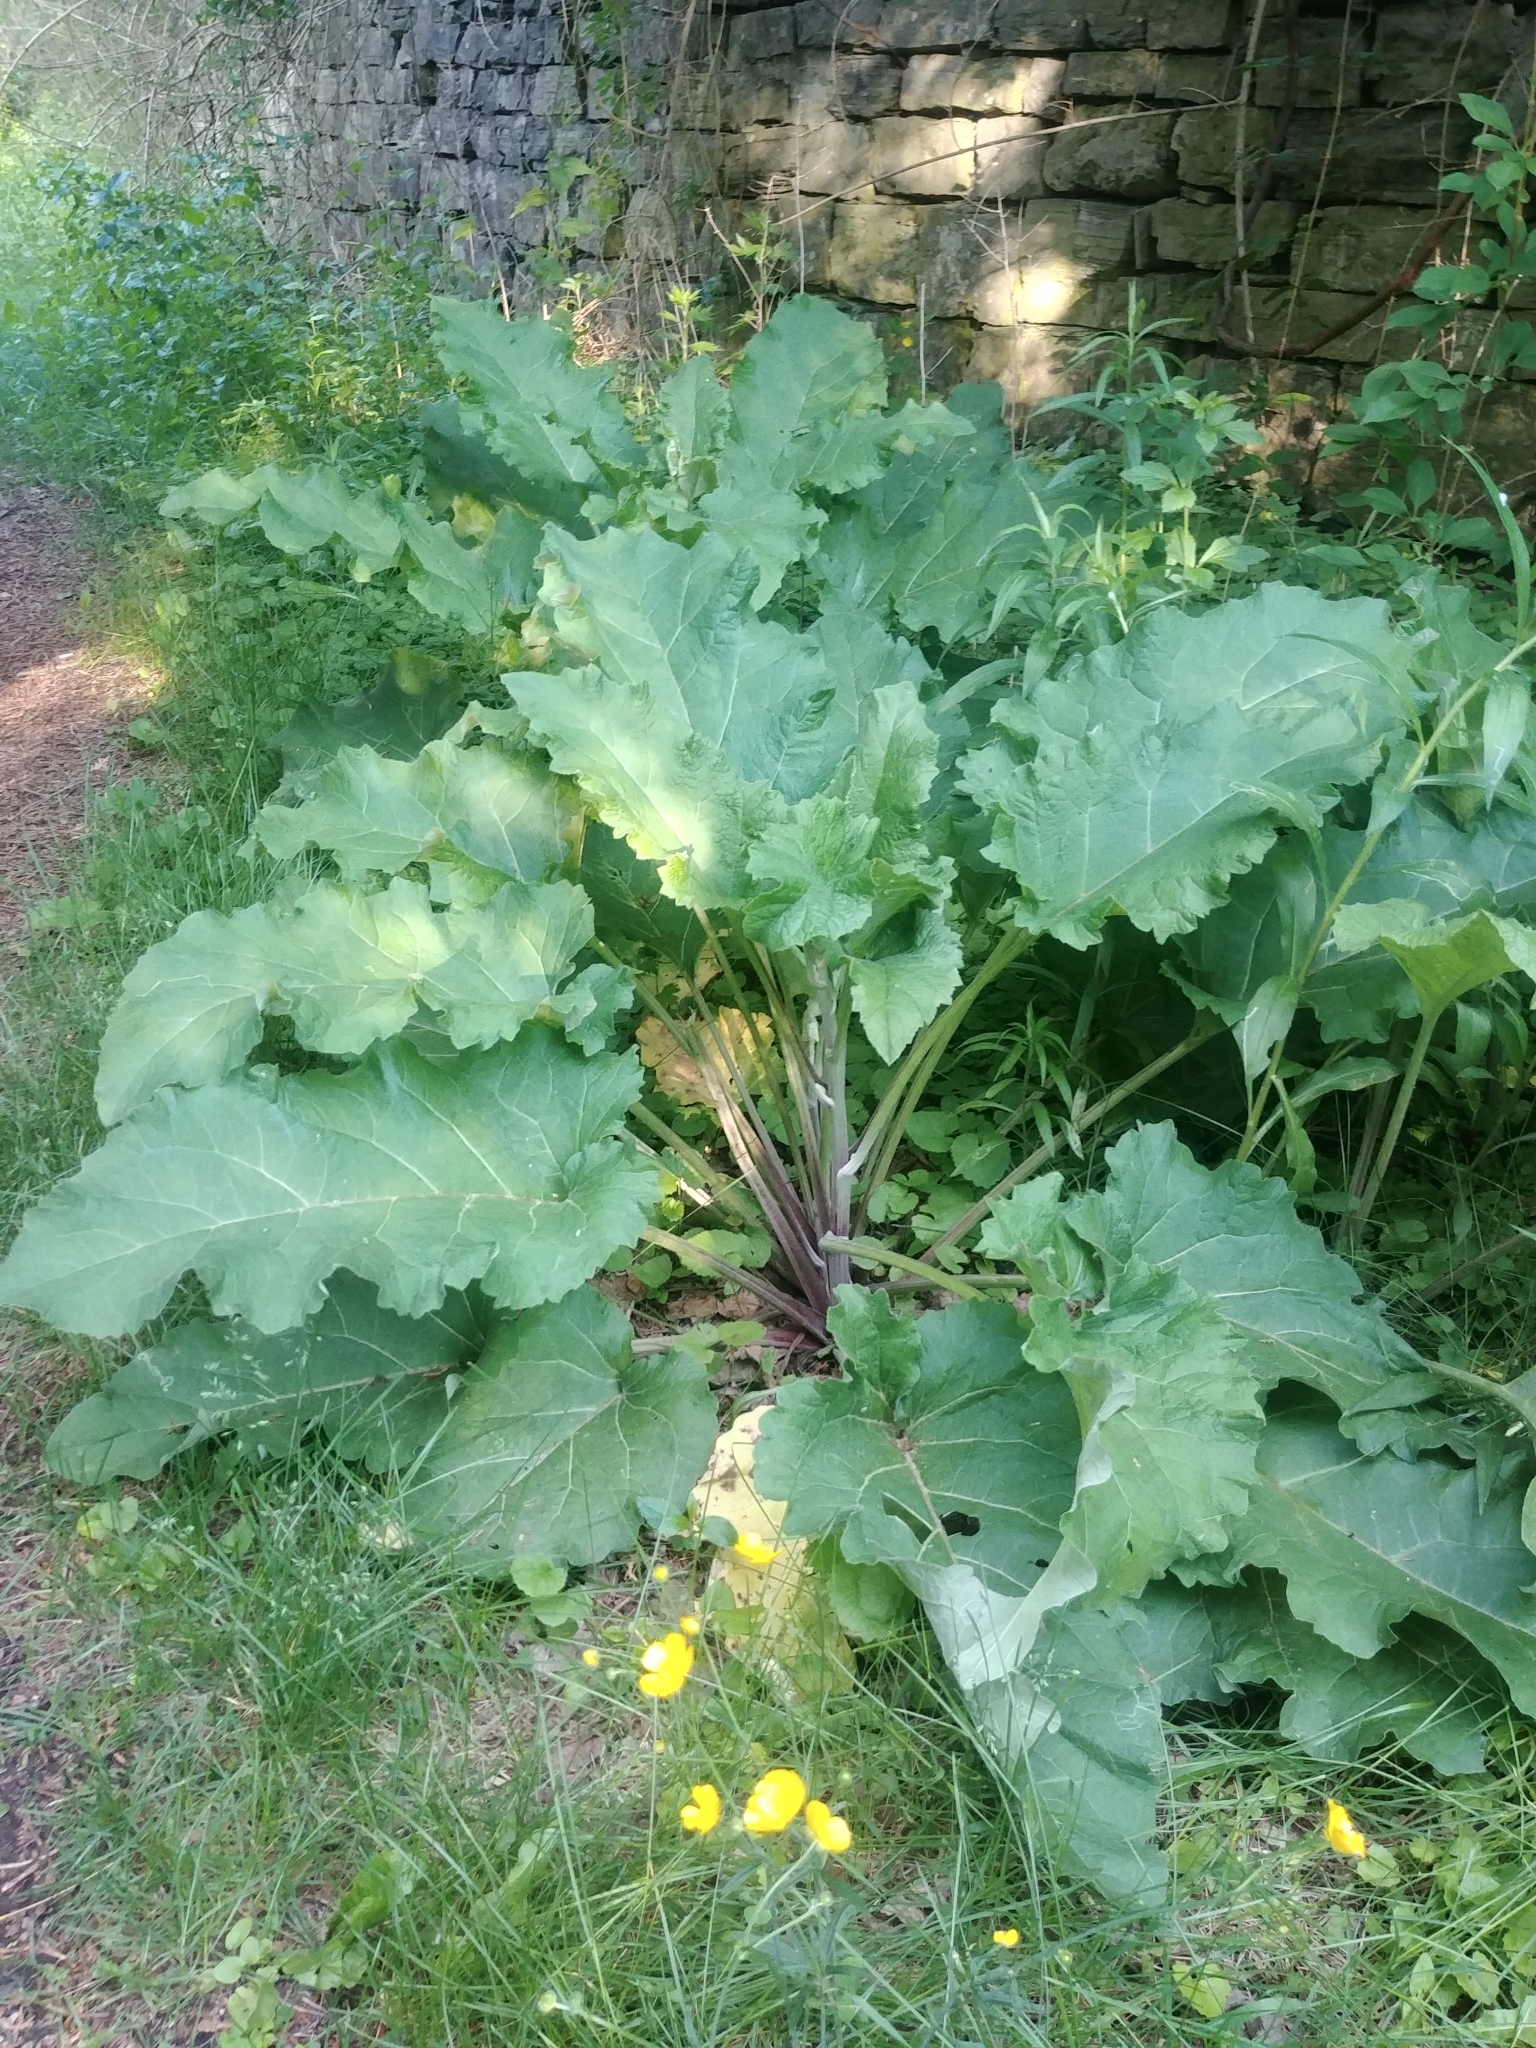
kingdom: Plantae
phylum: Tracheophyta
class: Magnoliopsida
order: Asterales
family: Asteraceae
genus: Arctium
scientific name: Arctium lappa
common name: Greater burdock
